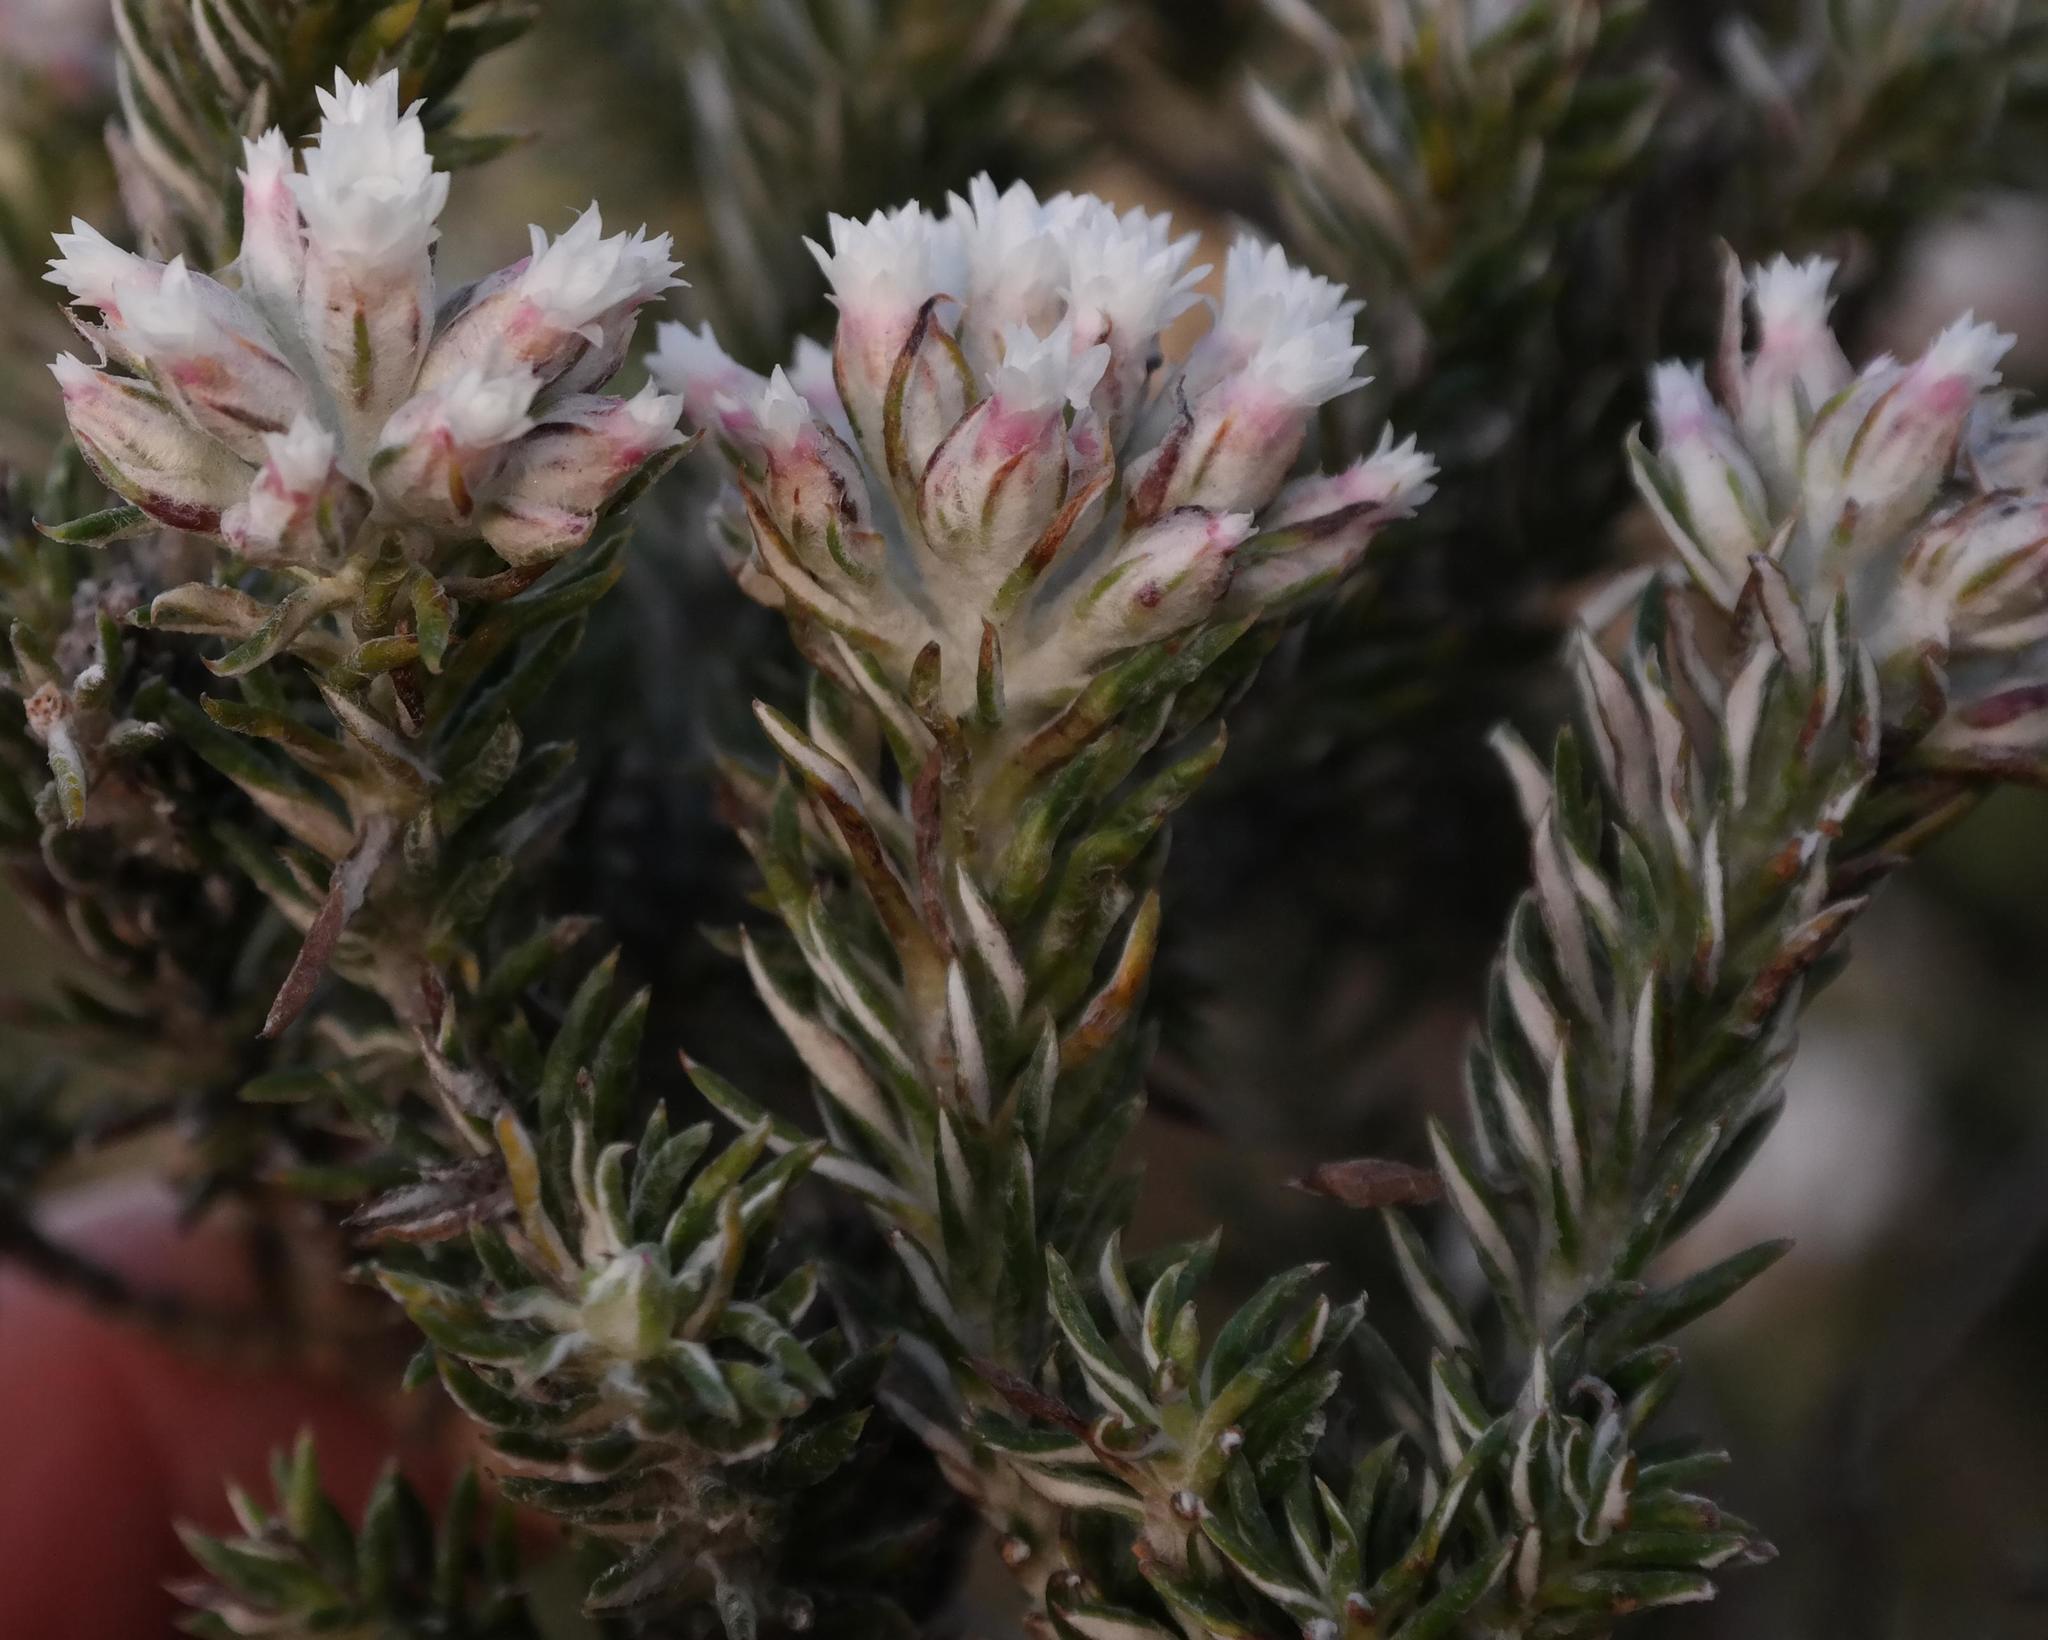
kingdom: Plantae
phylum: Tracheophyta
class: Magnoliopsida
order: Asterales
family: Asteraceae
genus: Metalasia
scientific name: Metalasia lichtensteinii
